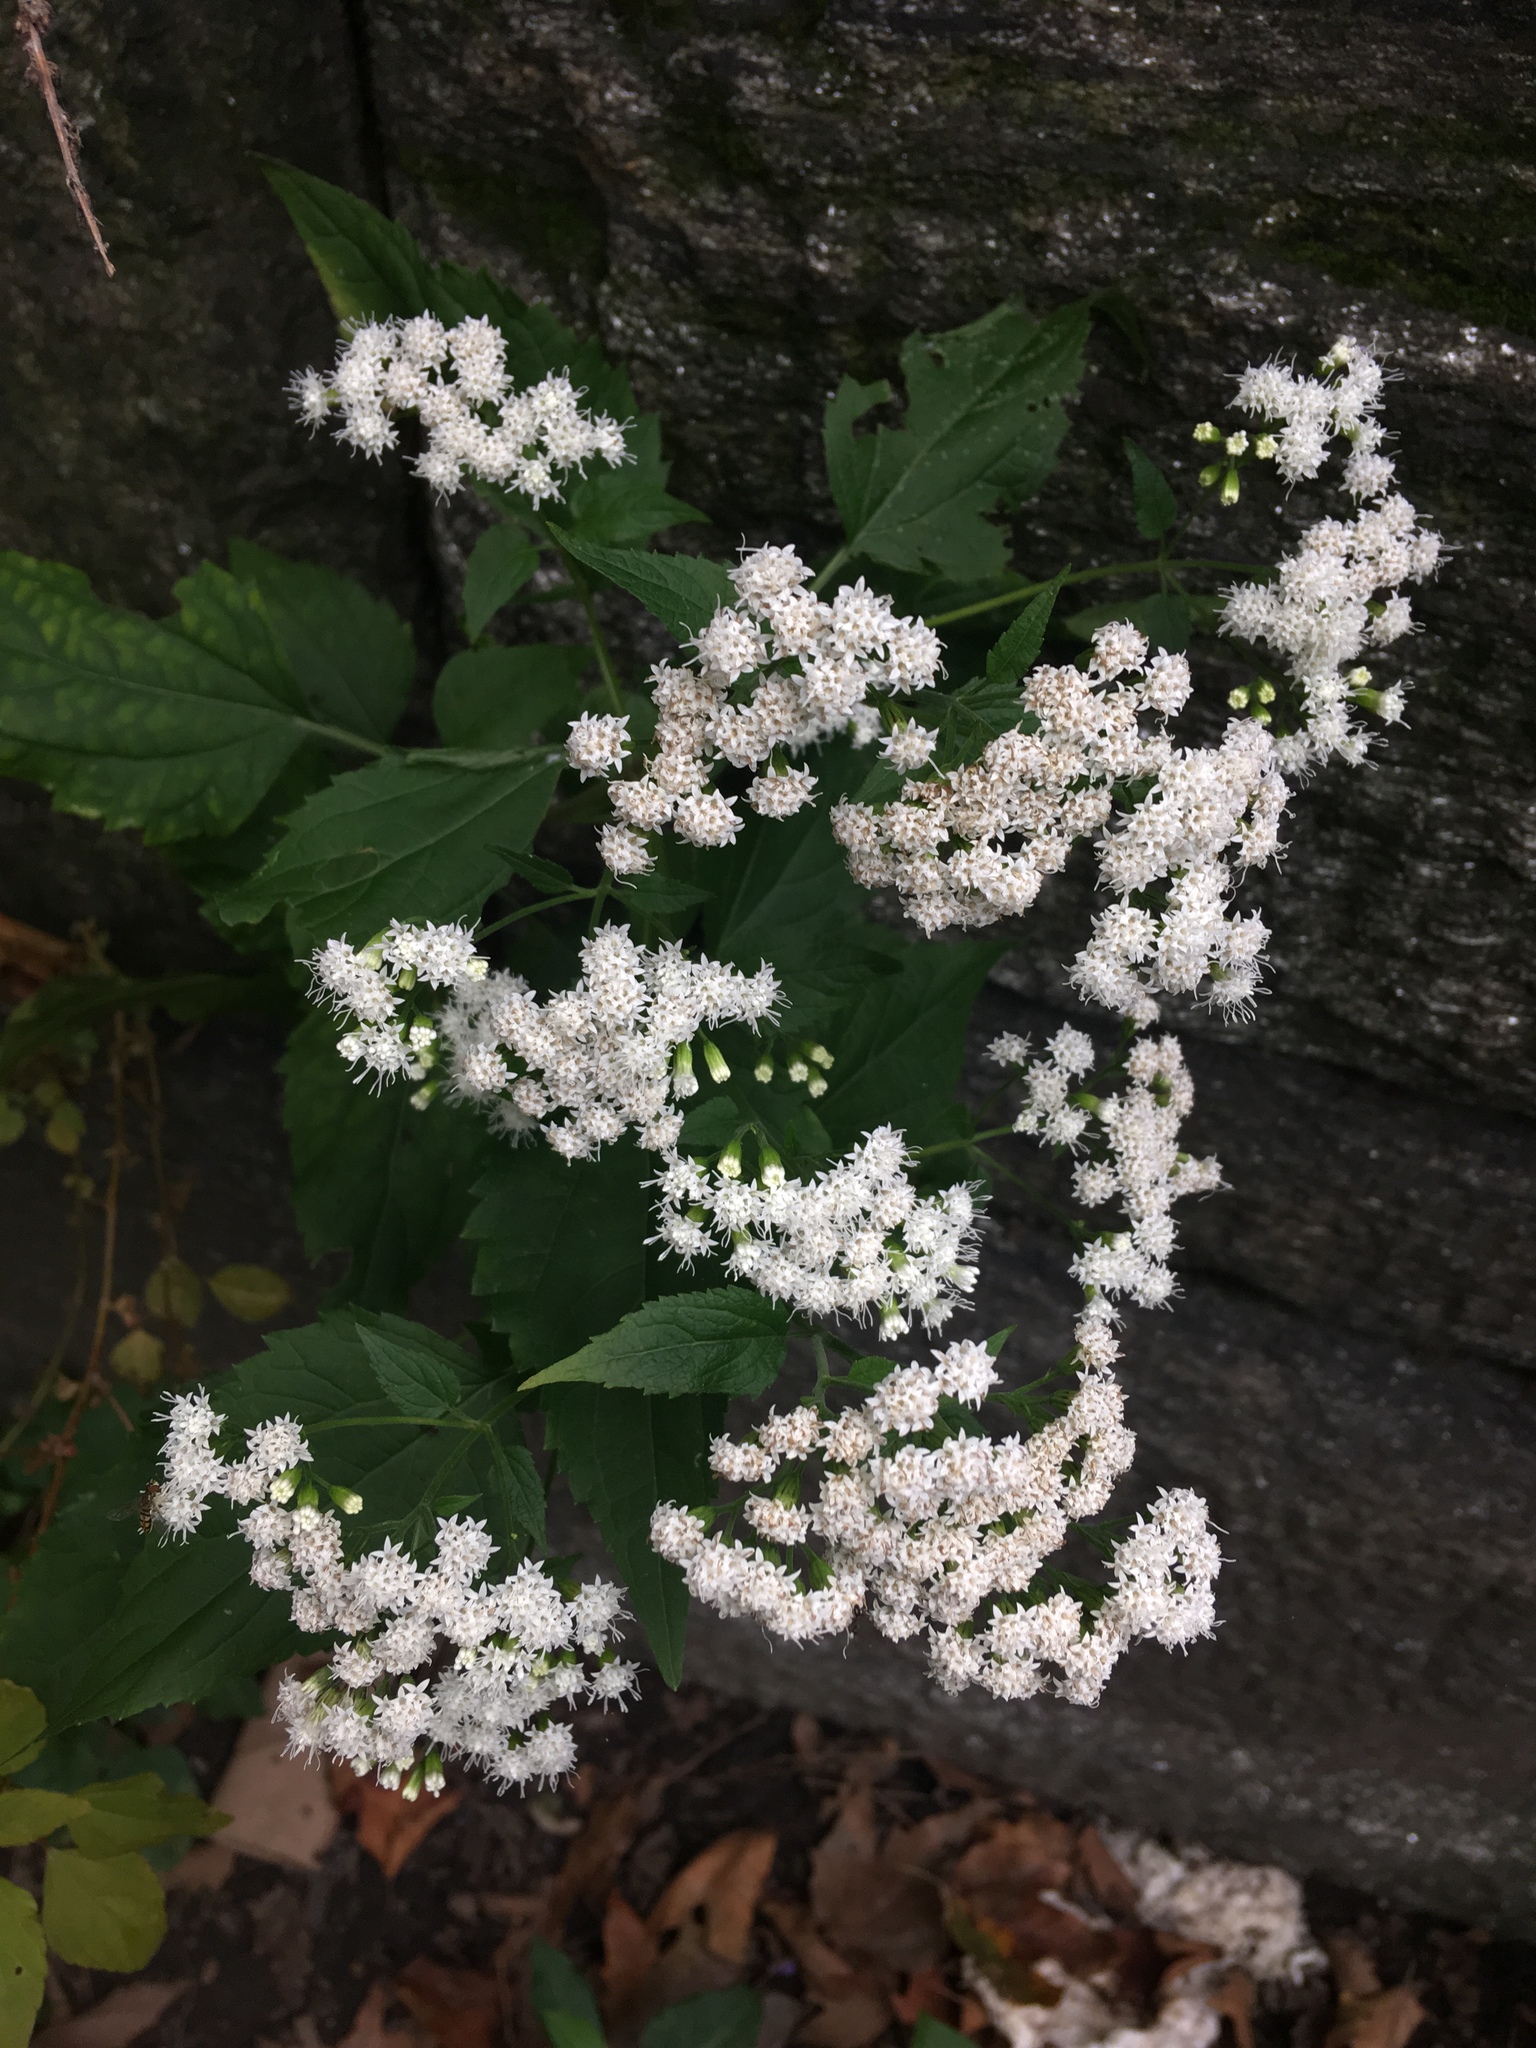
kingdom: Plantae
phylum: Tracheophyta
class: Magnoliopsida
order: Asterales
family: Asteraceae
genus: Ageratina
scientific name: Ageratina altissima
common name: White snakeroot
